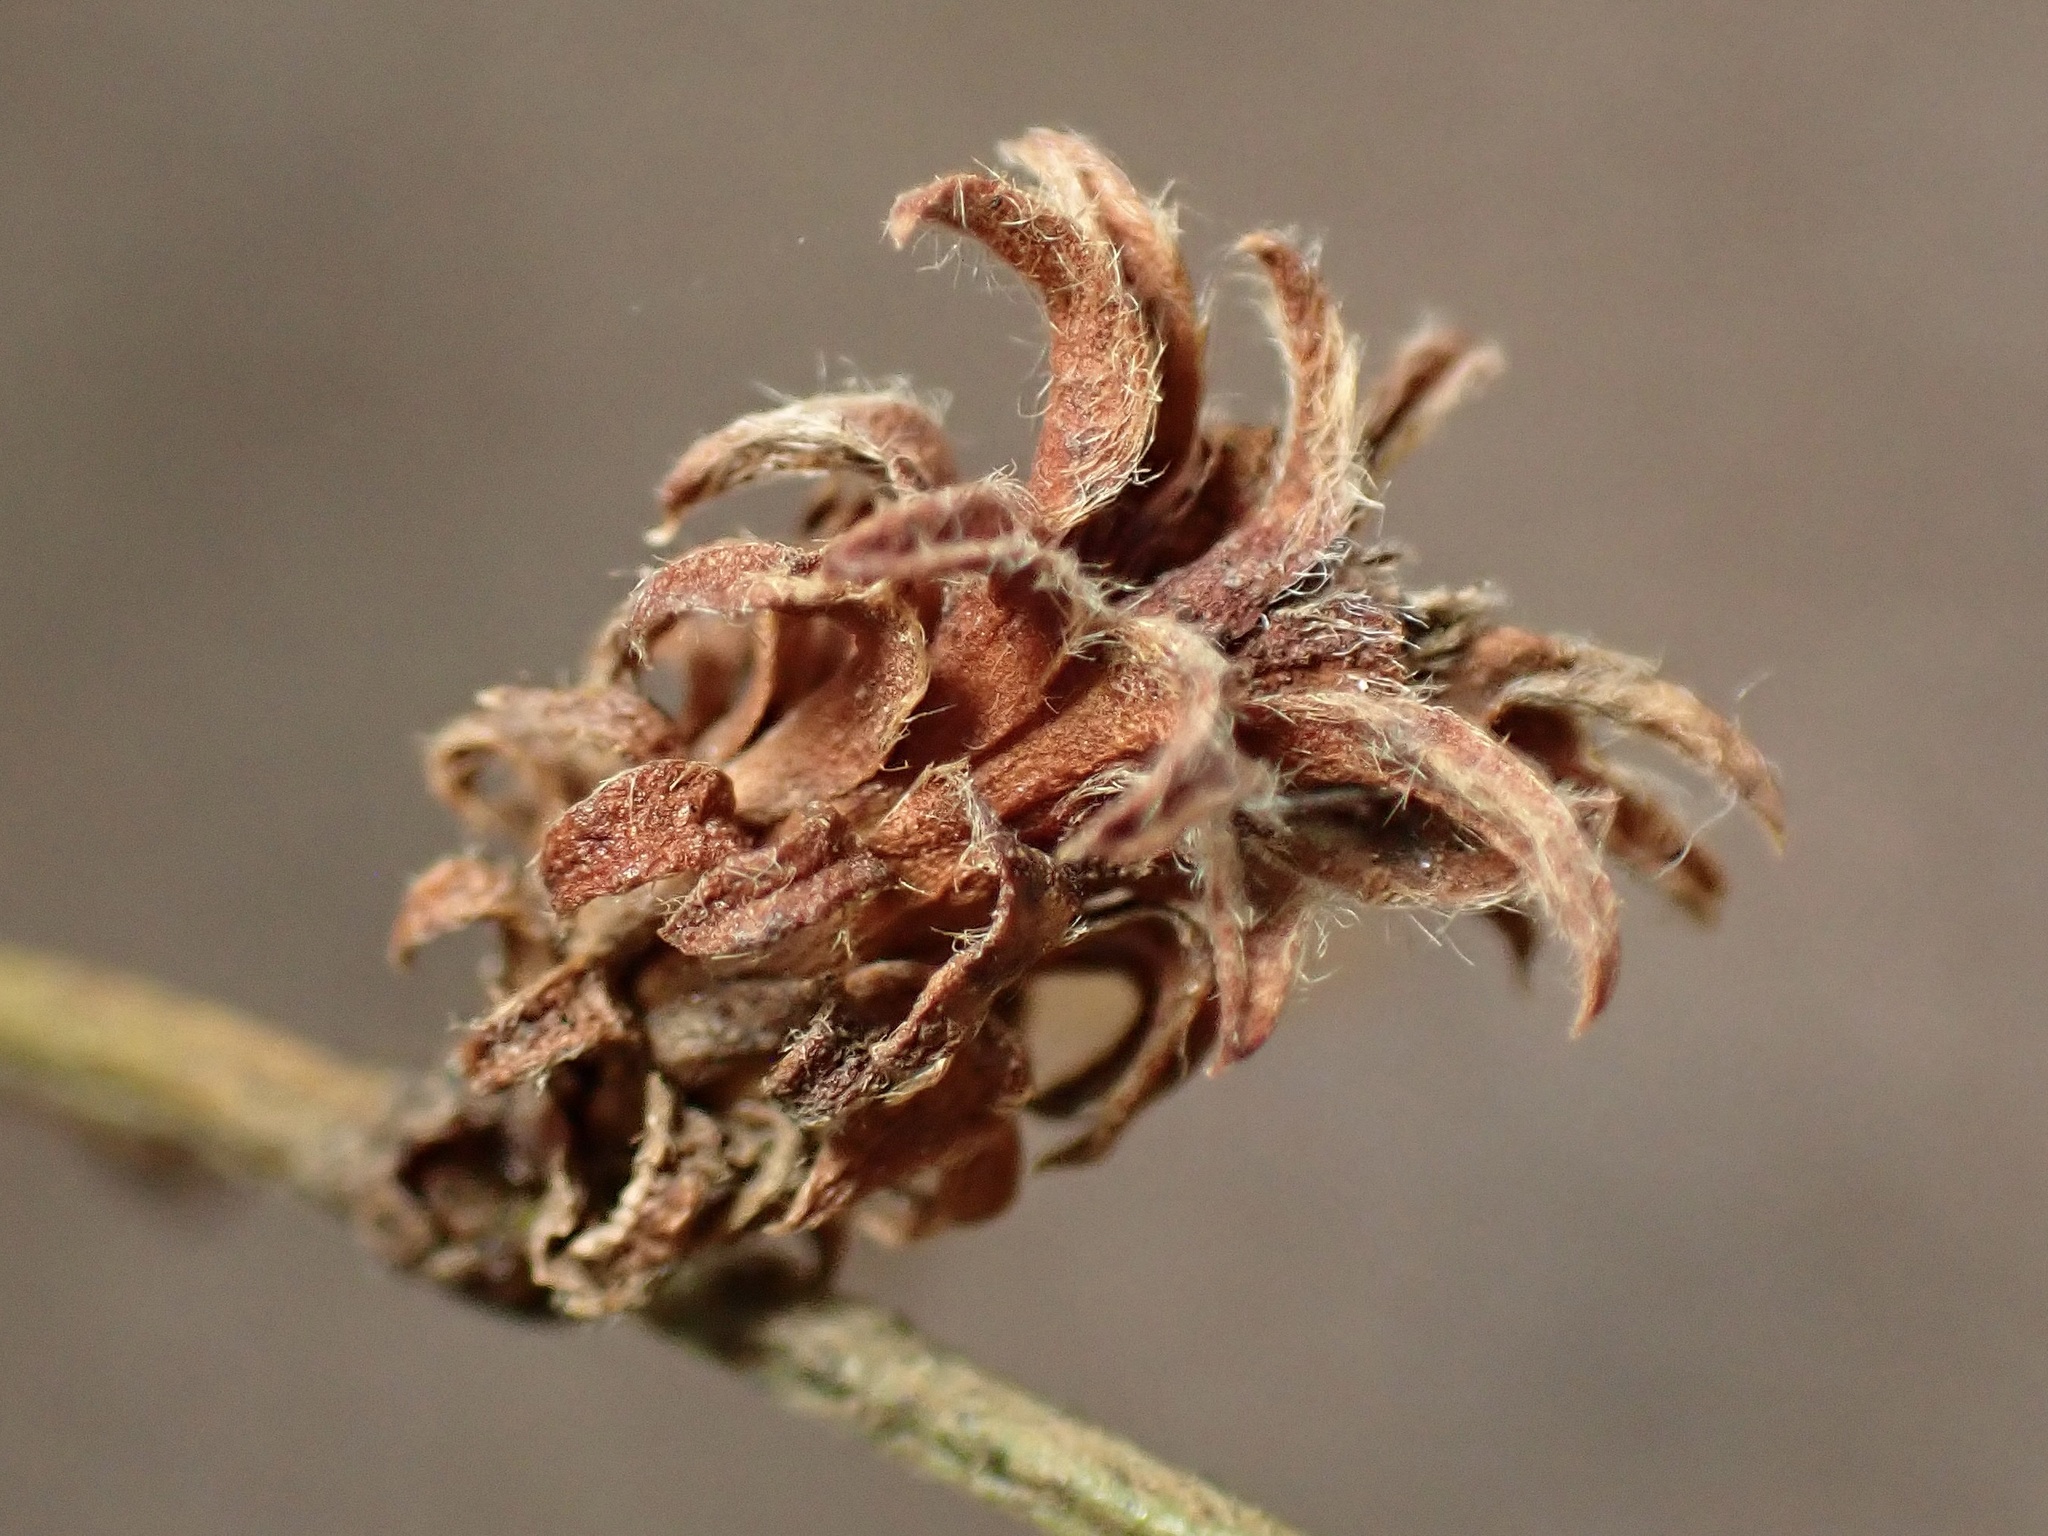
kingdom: Animalia
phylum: Arthropoda
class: Insecta
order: Diptera
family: Cecidomyiidae
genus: Asphondylia
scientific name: Asphondylia rosetta
